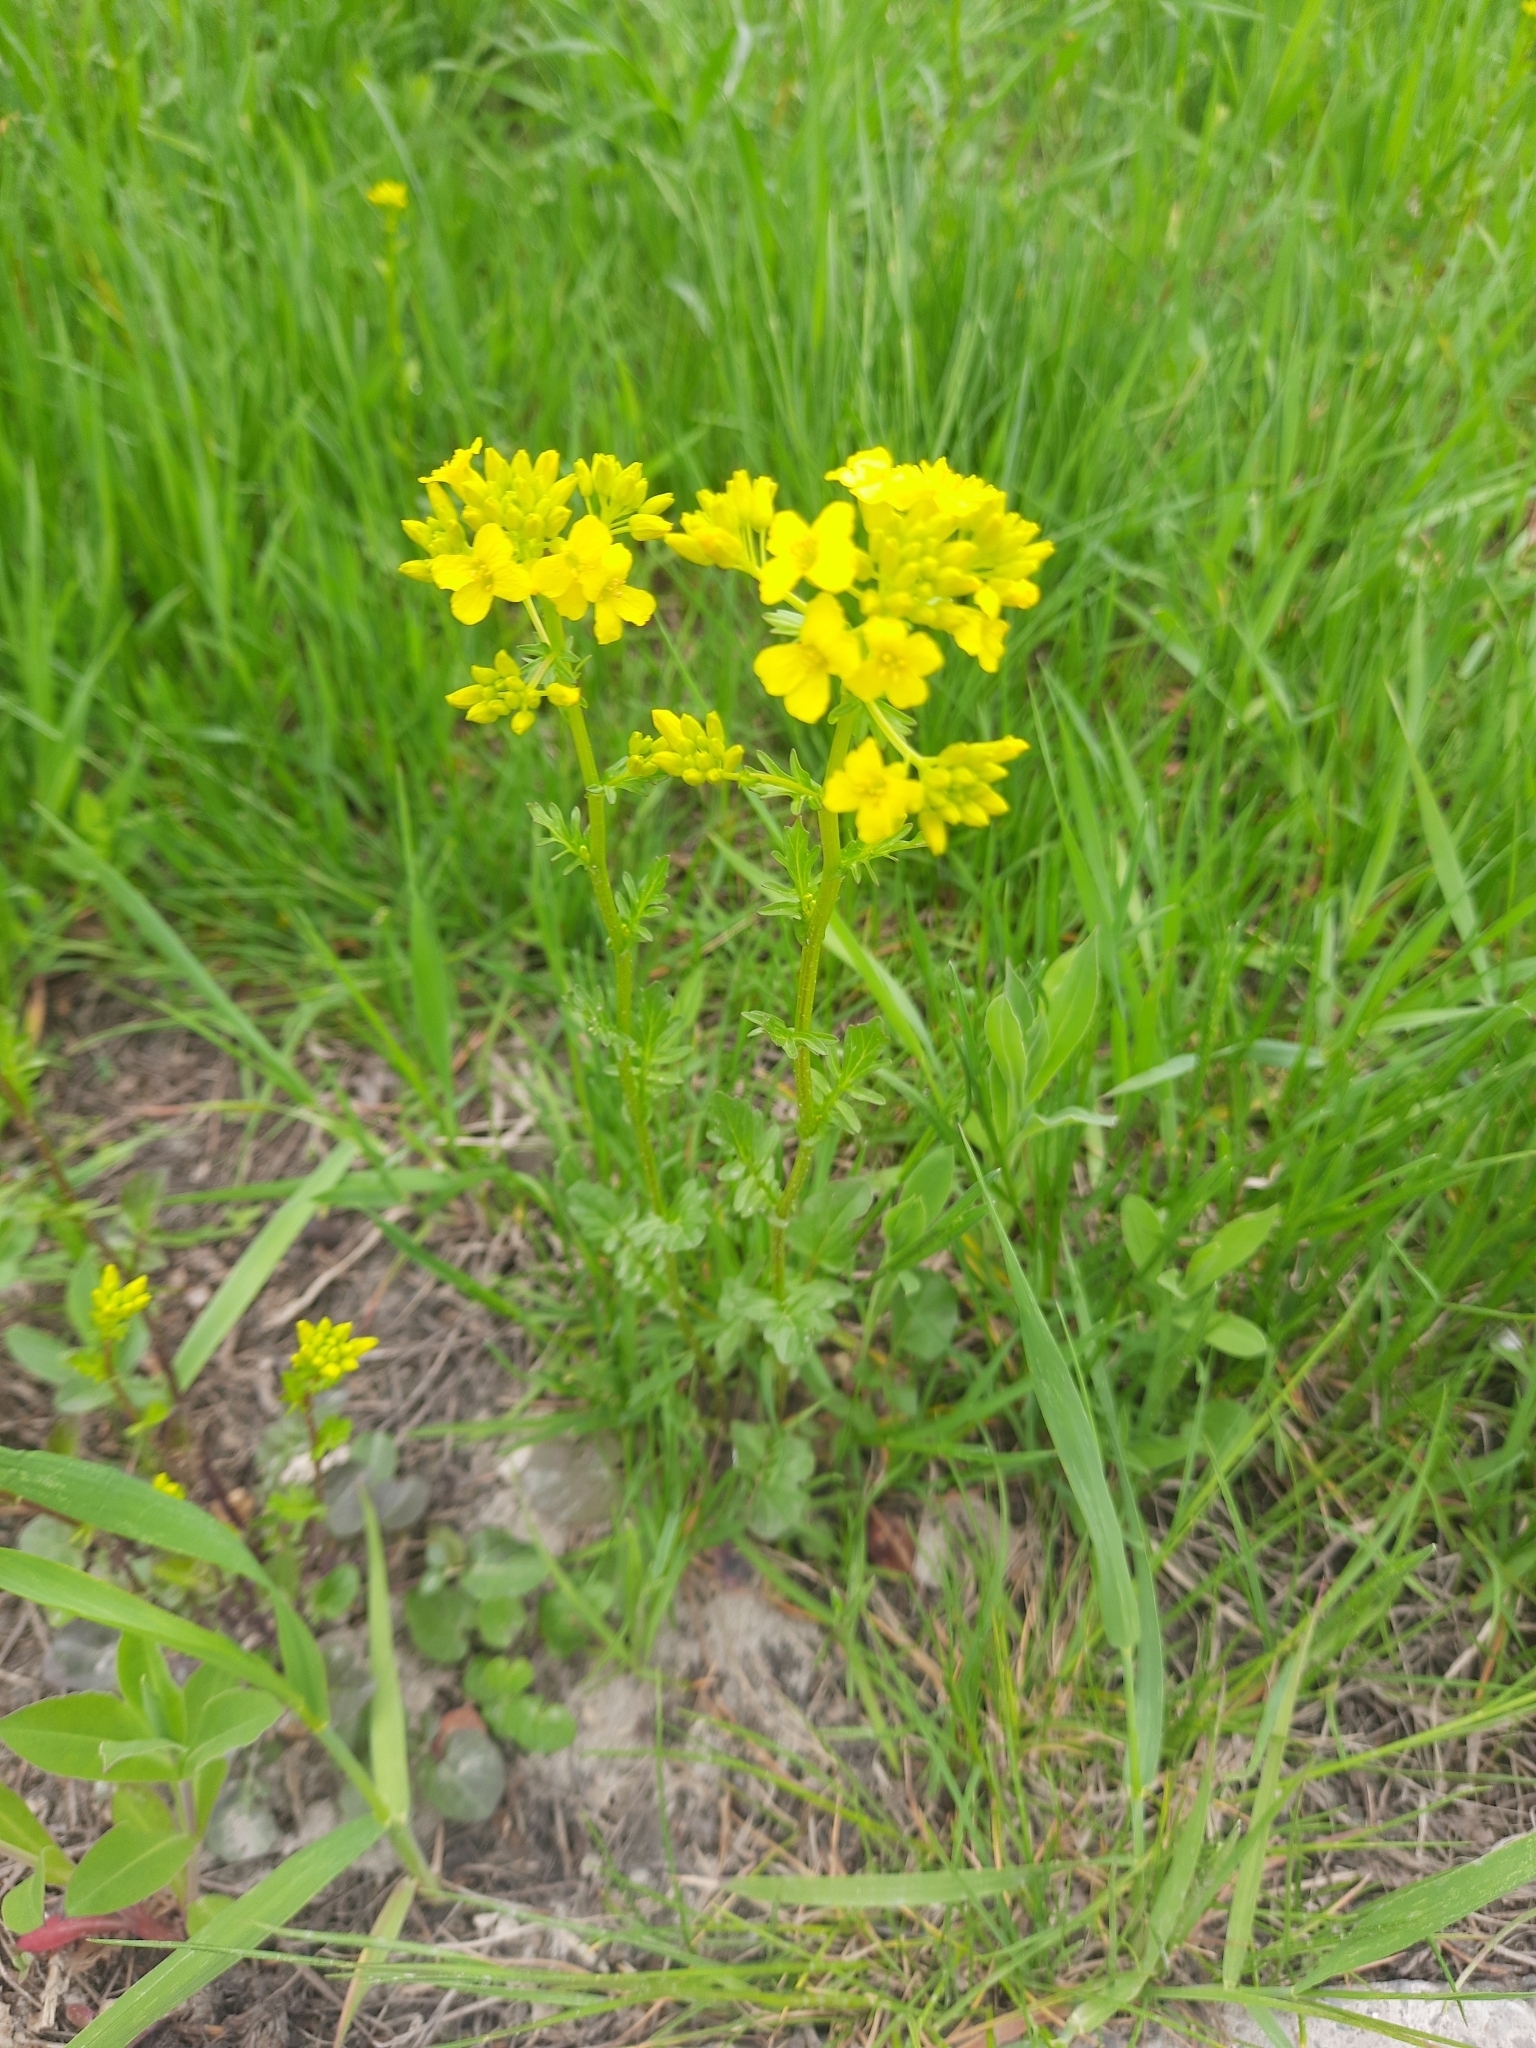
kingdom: Plantae
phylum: Tracheophyta
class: Magnoliopsida
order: Brassicales
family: Brassicaceae
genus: Barbarea
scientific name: Barbarea vulgaris
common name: Cressy-greens
